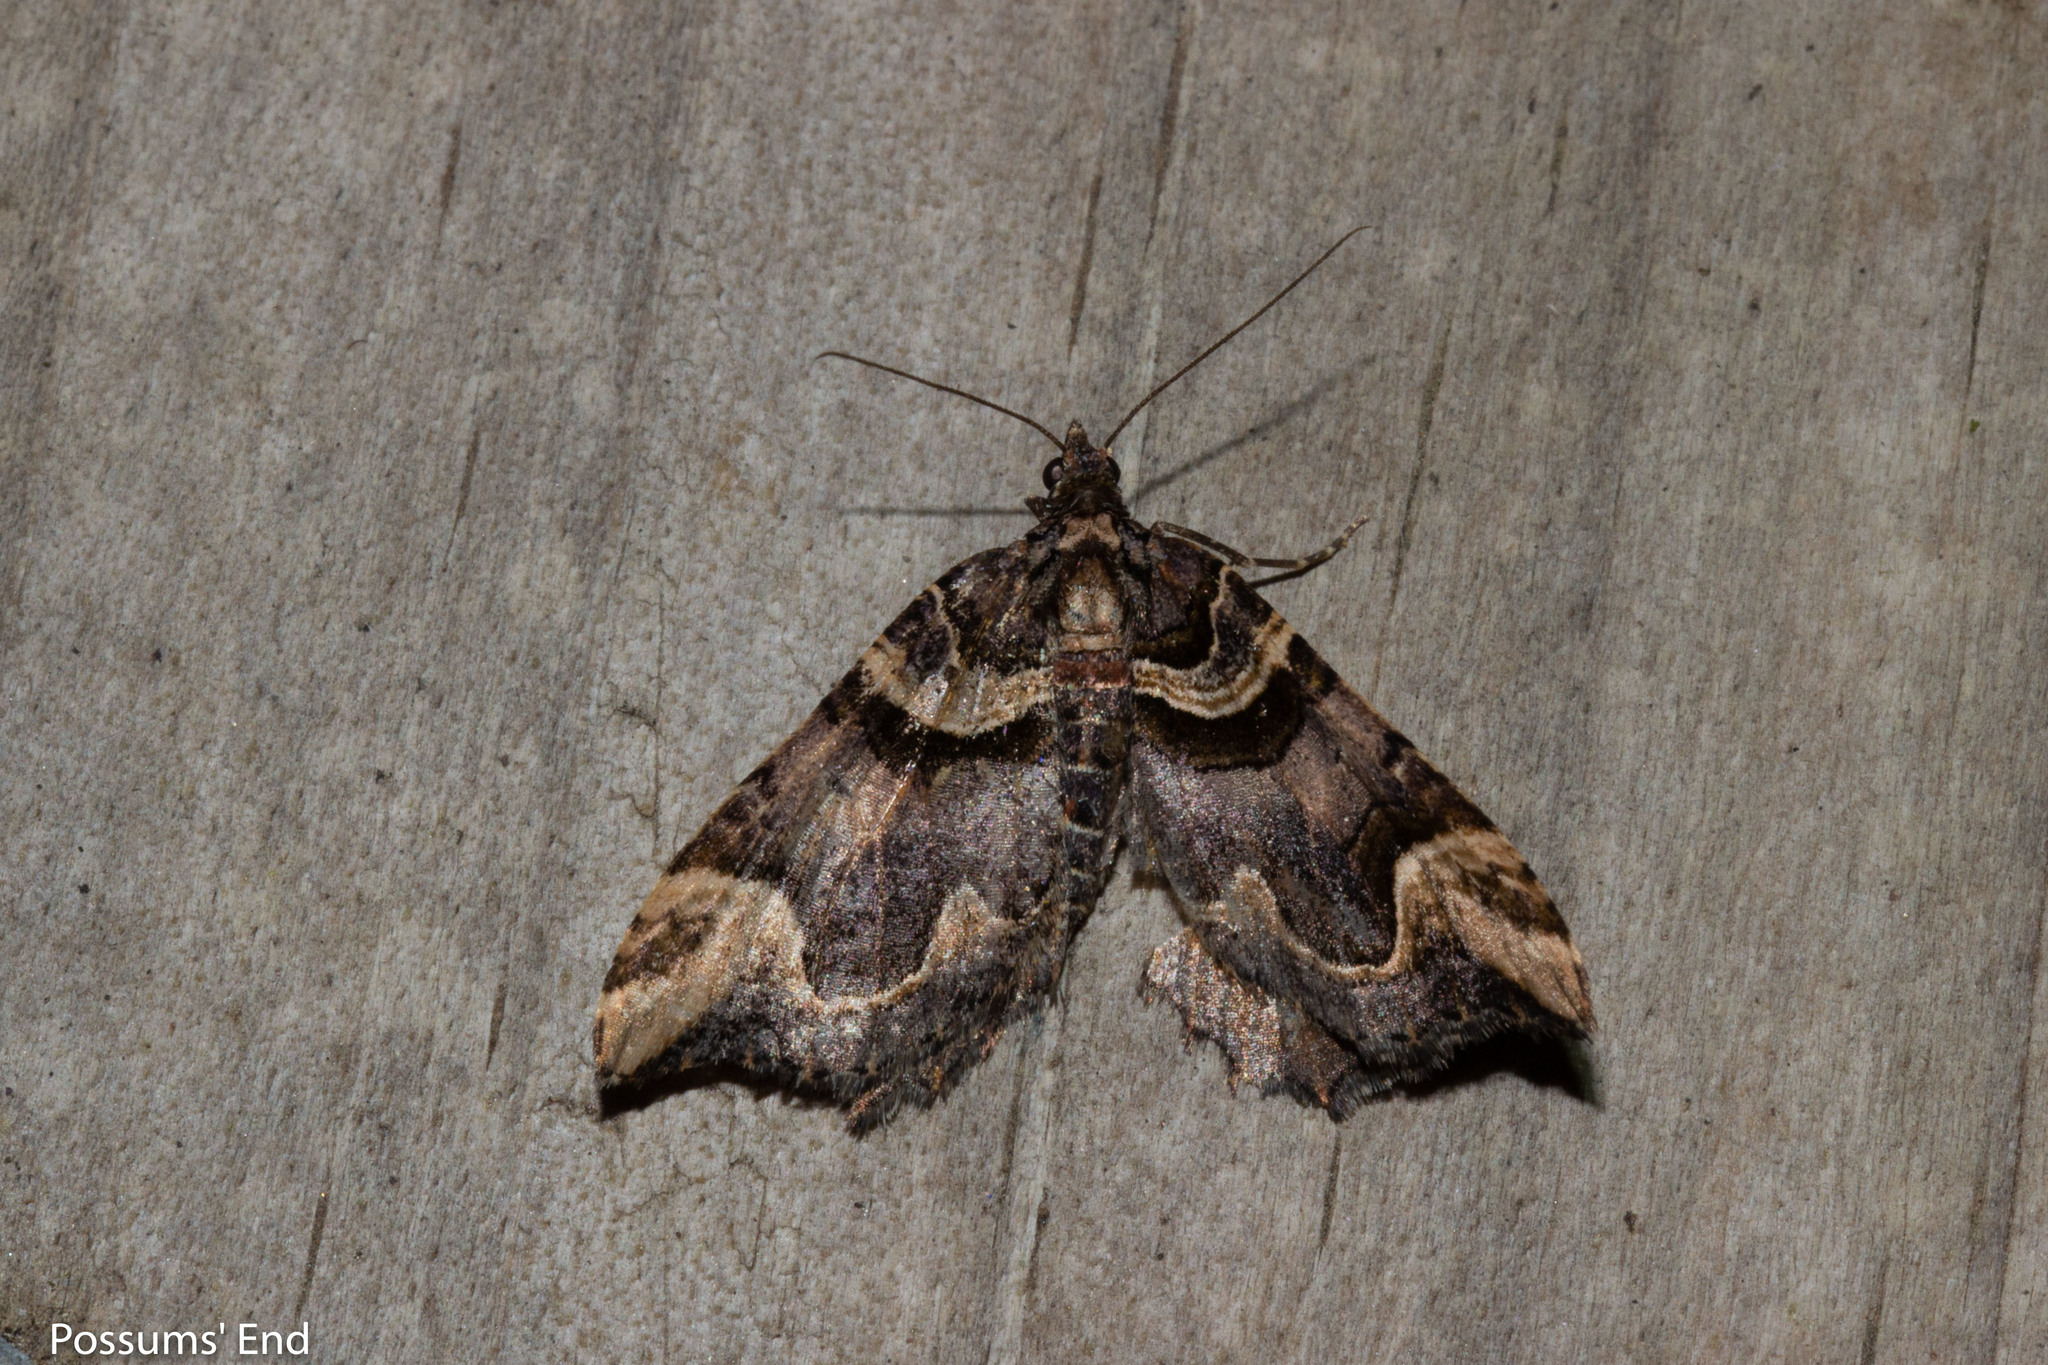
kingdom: Animalia
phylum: Arthropoda
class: Insecta
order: Lepidoptera
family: Geometridae
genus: Asaphodes
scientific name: Asaphodes chlamydota
